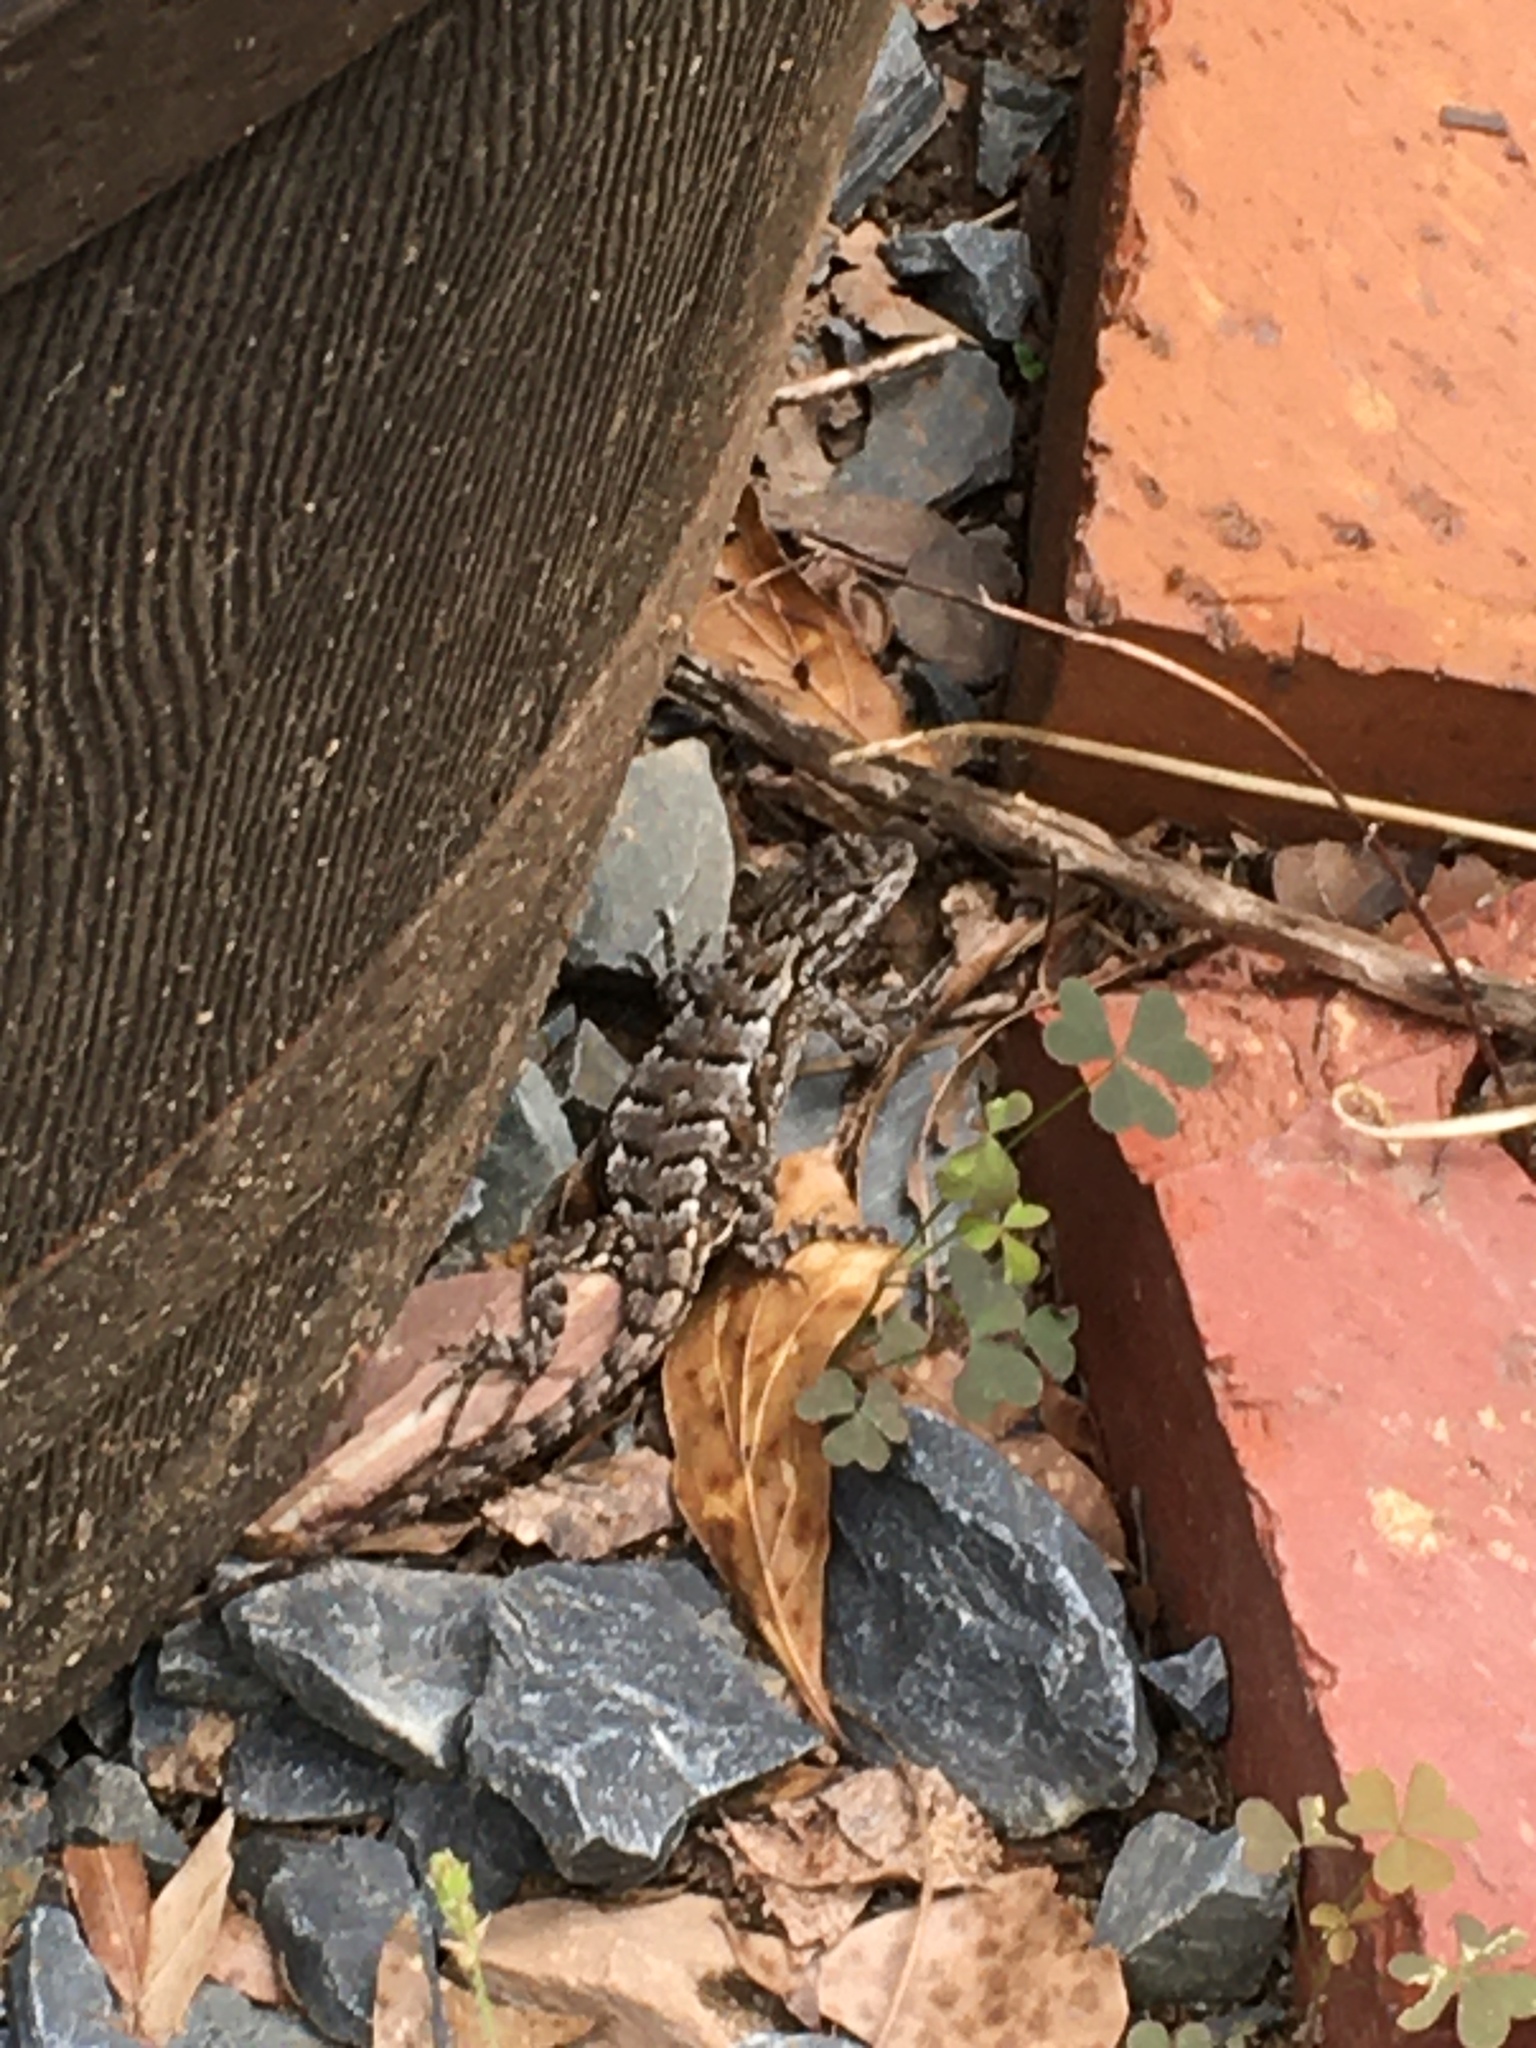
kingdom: Animalia
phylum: Chordata
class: Squamata
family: Phrynosomatidae
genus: Sceloporus
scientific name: Sceloporus undulatus
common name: Eastern fence lizard
